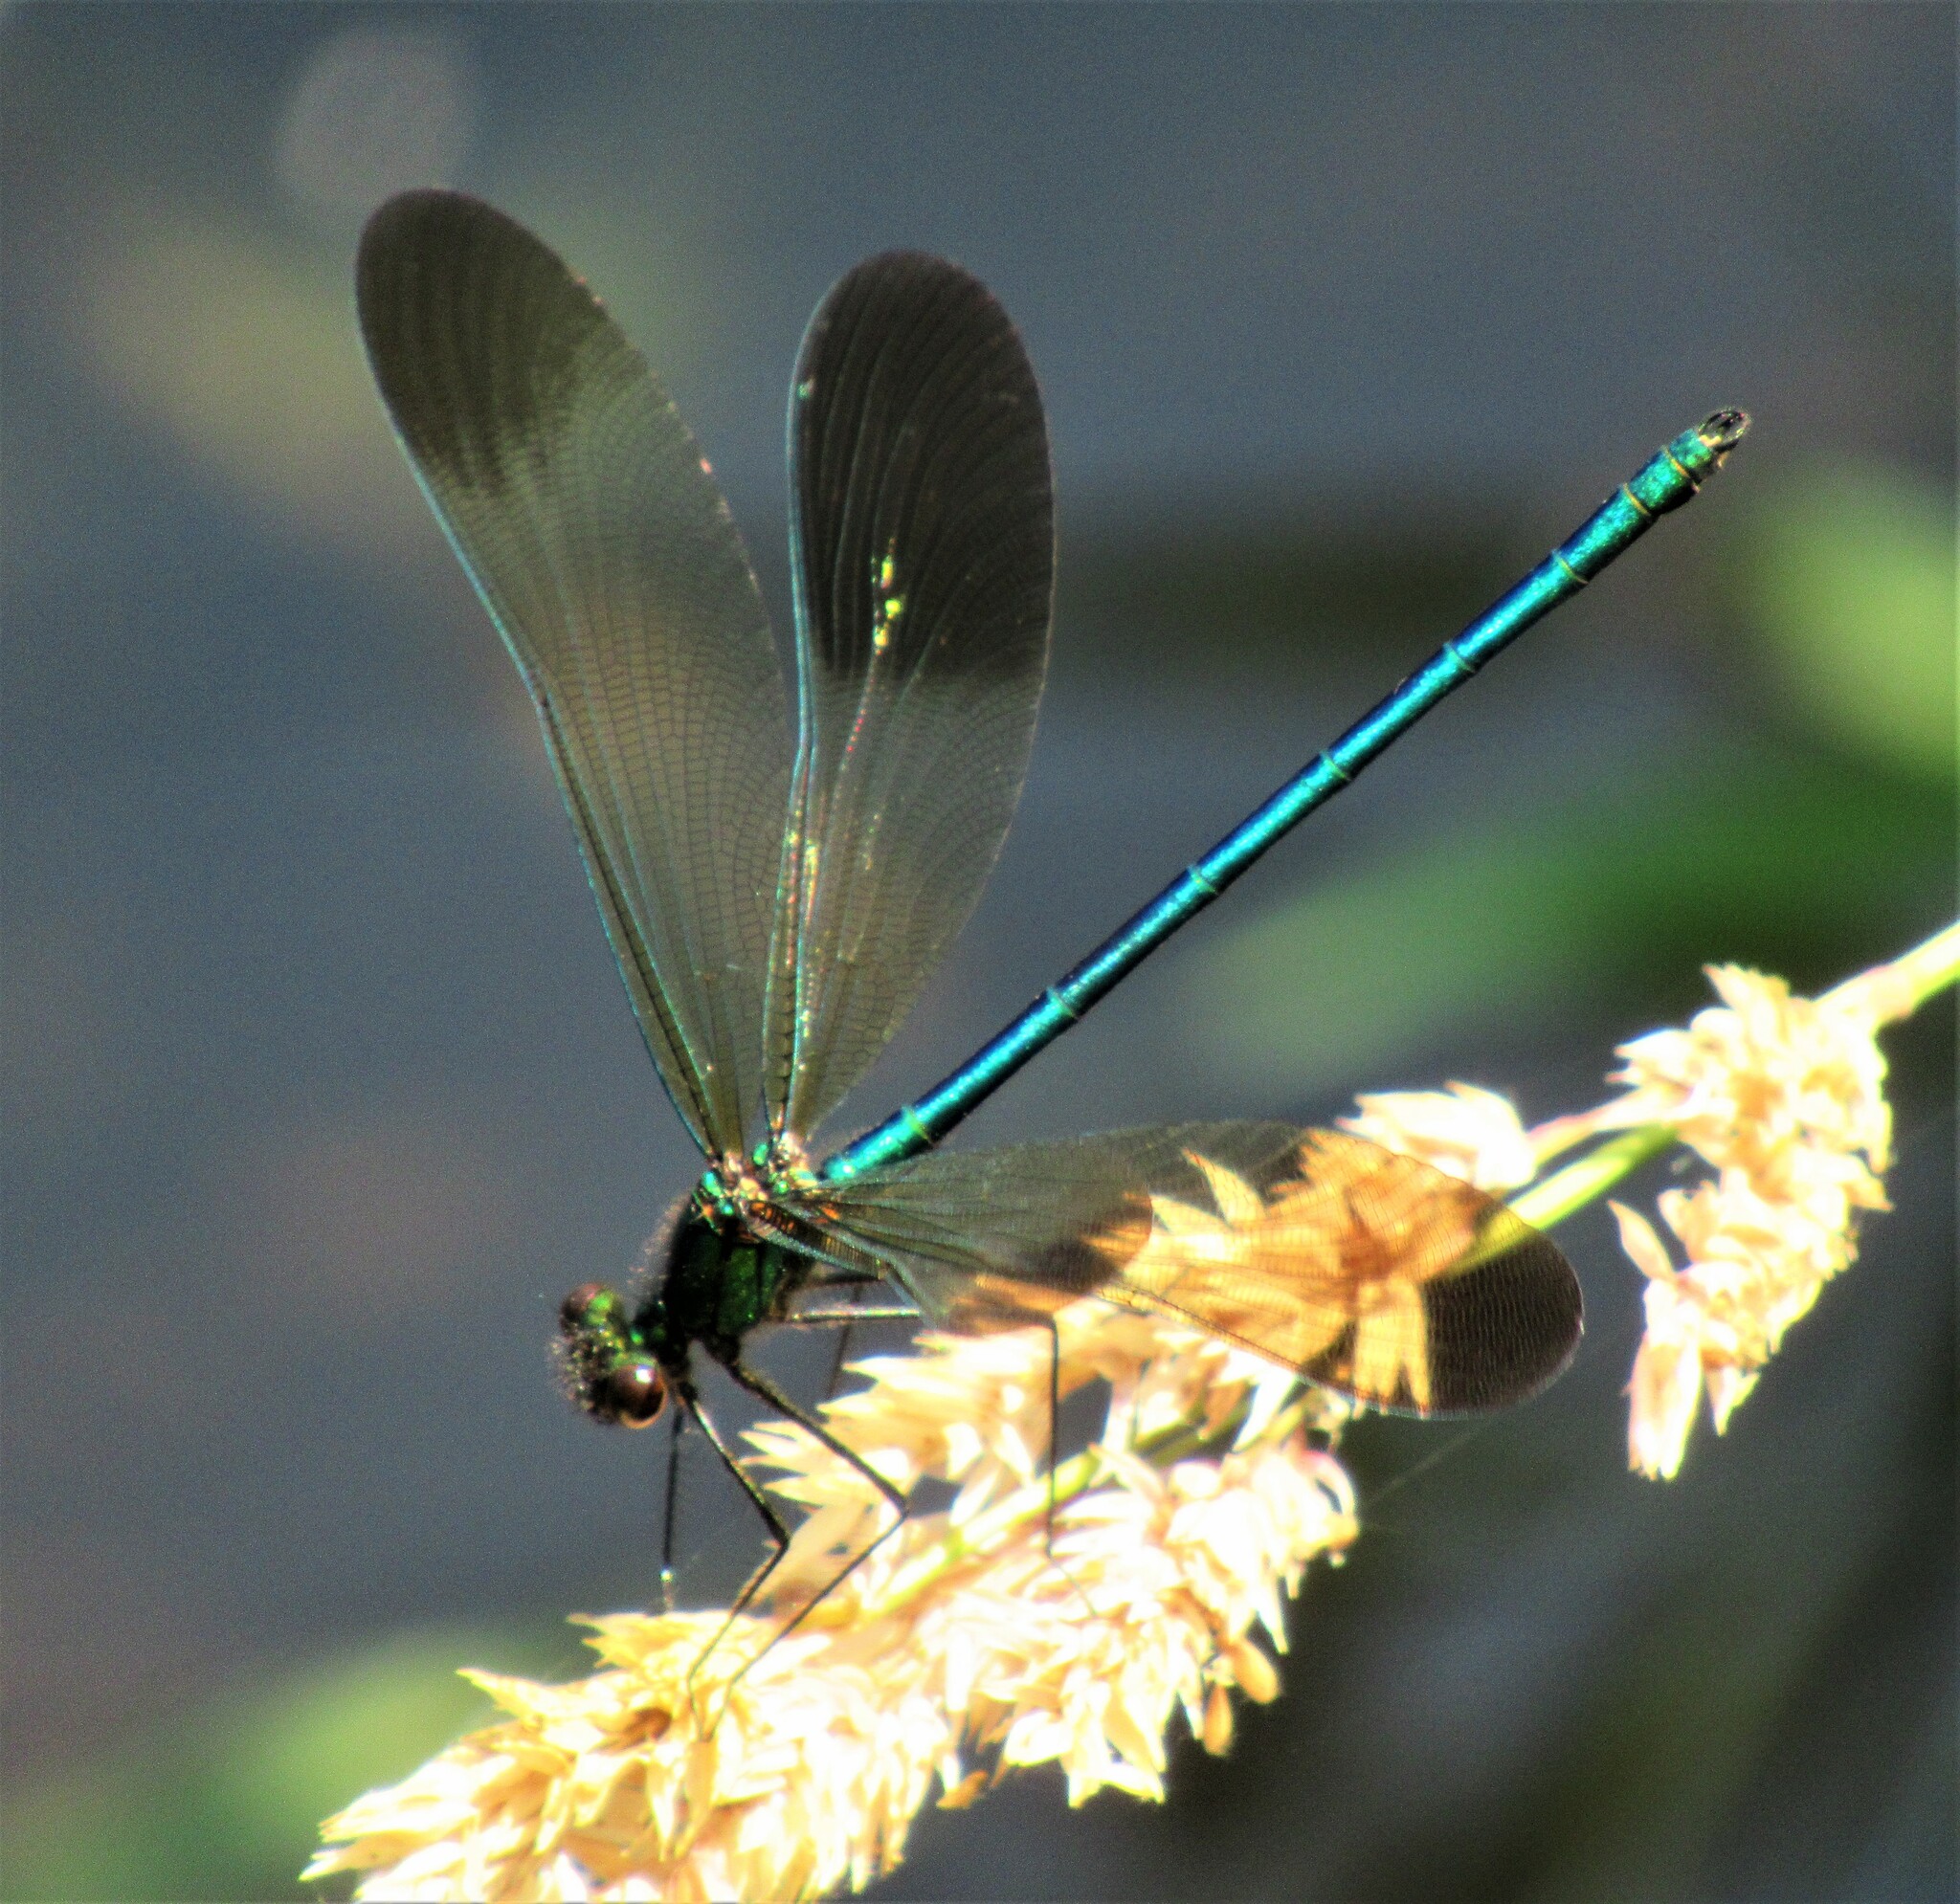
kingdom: Animalia
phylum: Arthropoda
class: Insecta
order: Odonata
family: Calopterygidae
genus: Calopteryx
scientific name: Calopteryx aequabilis
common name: River jewelwing
